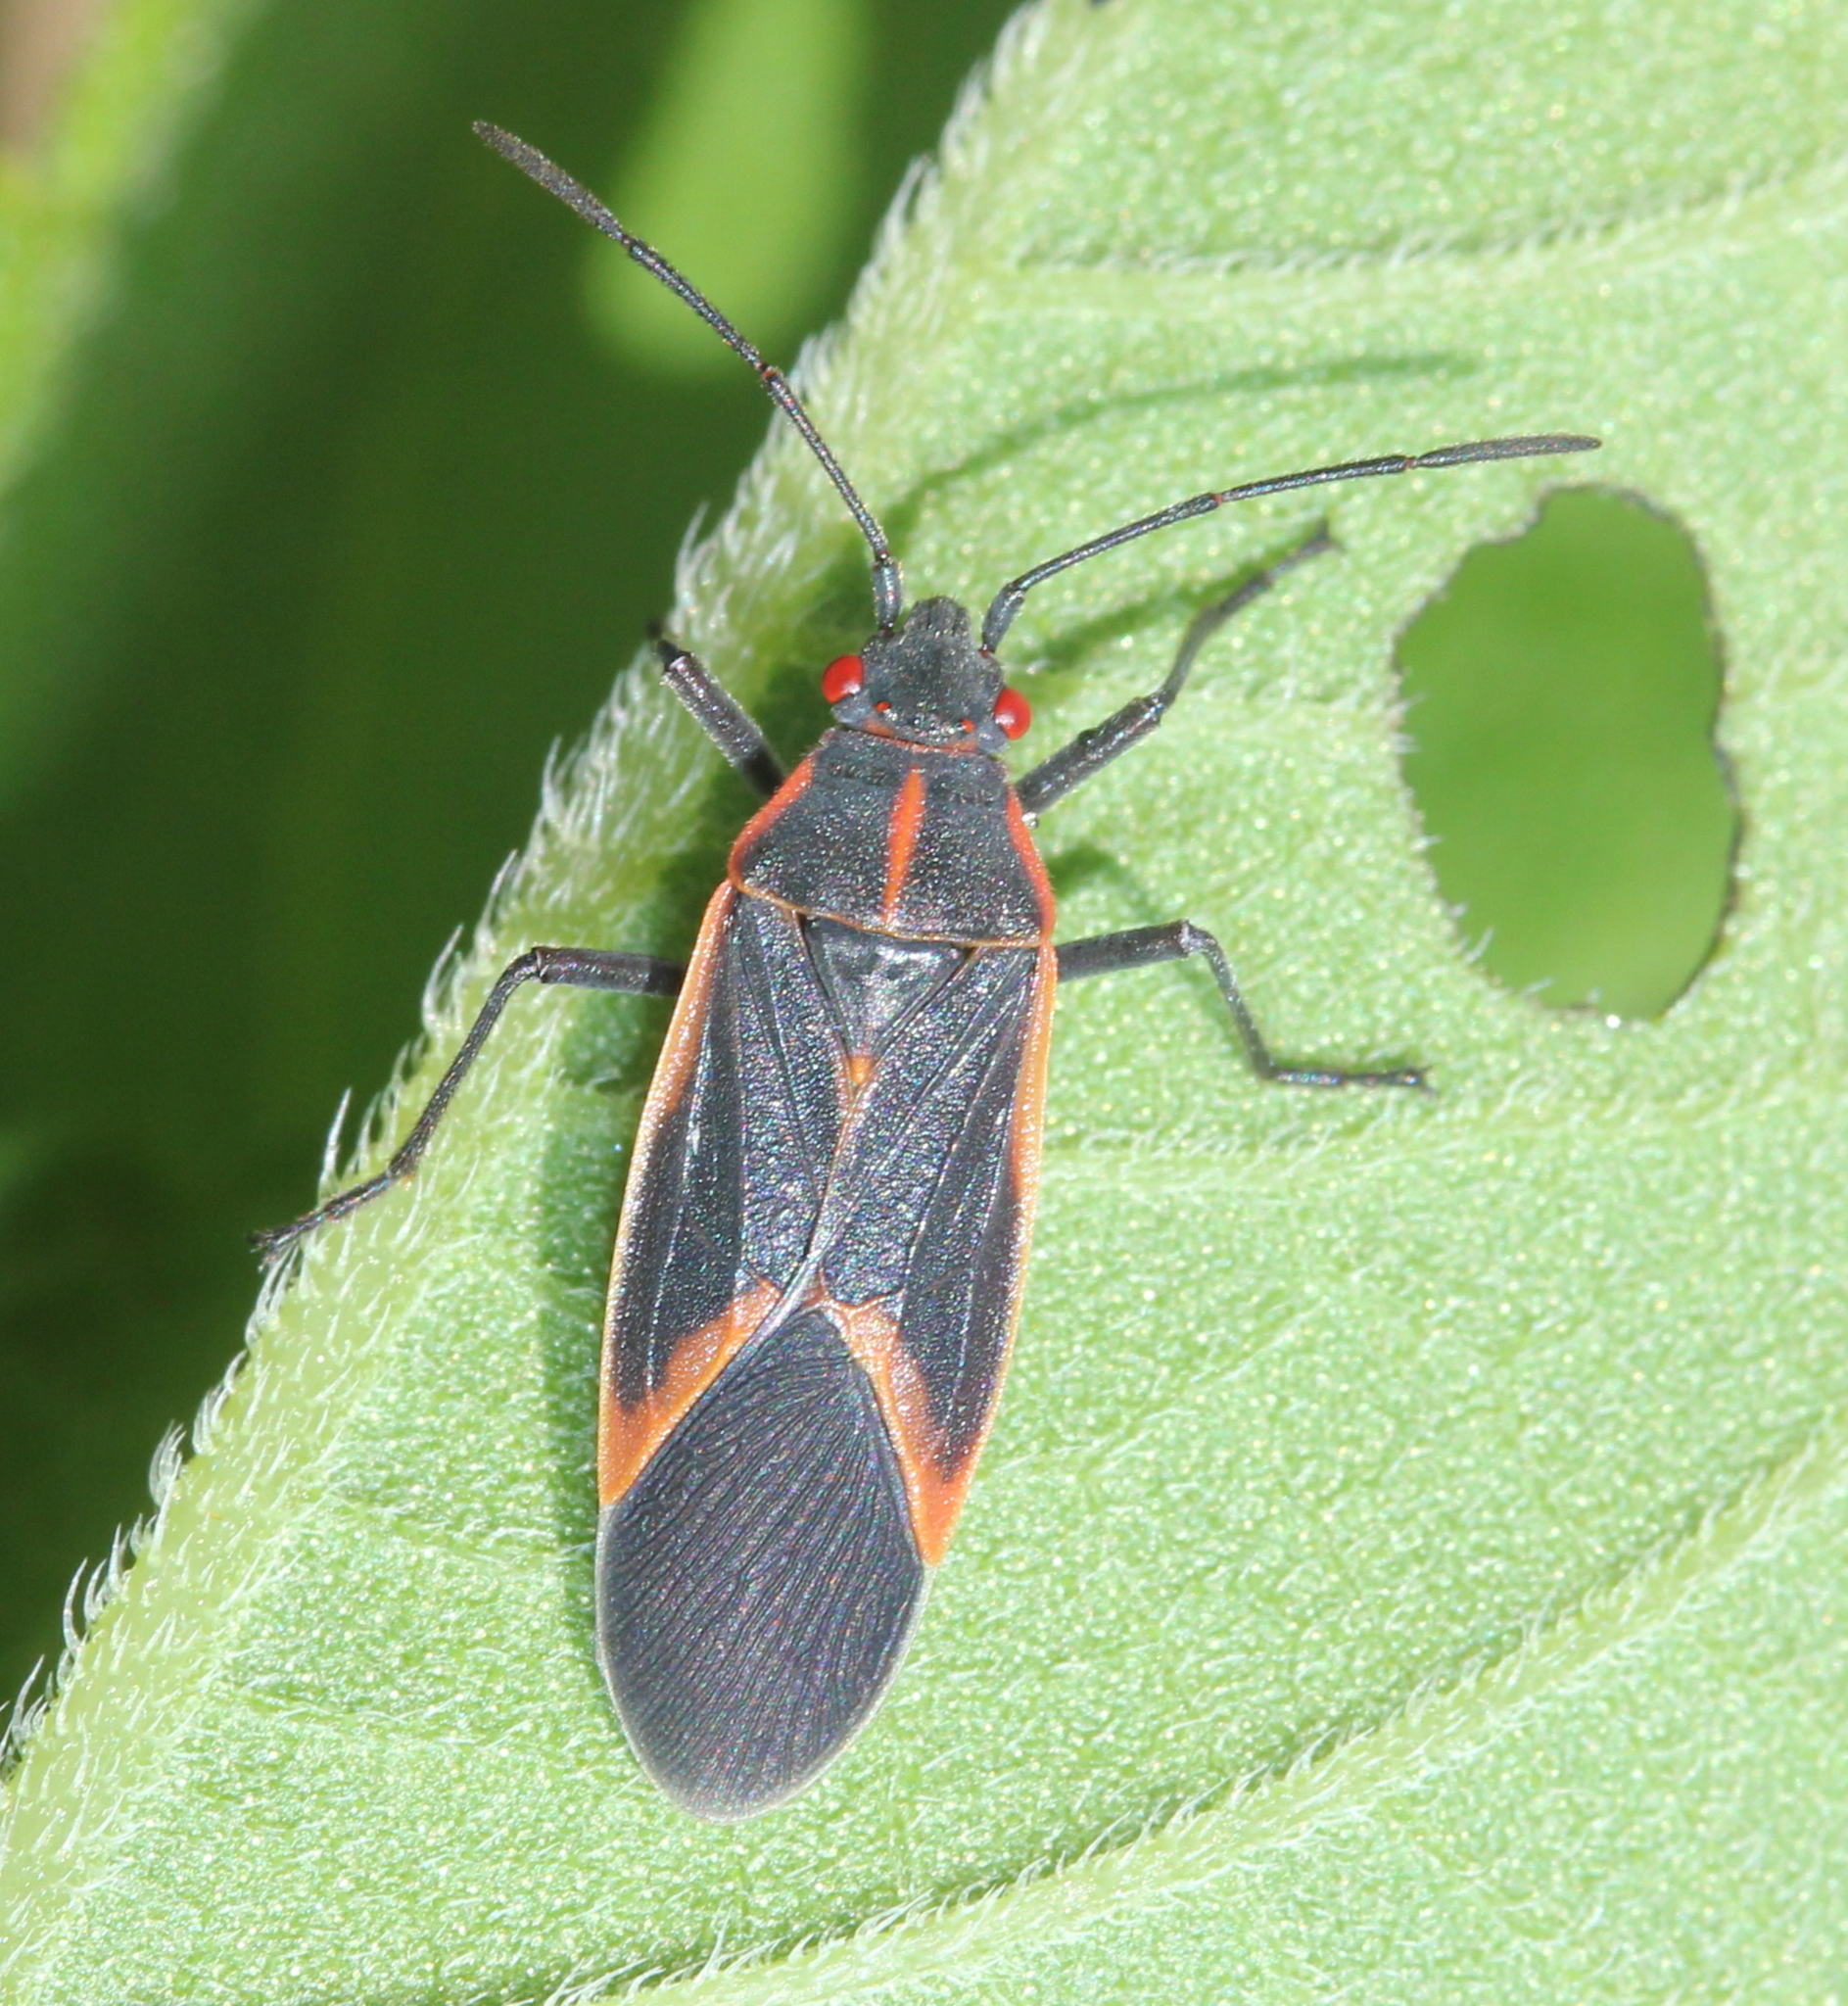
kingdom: Animalia
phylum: Arthropoda
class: Insecta
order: Hemiptera
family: Rhopalidae
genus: Boisea
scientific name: Boisea trivittata
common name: Boxelder bug
